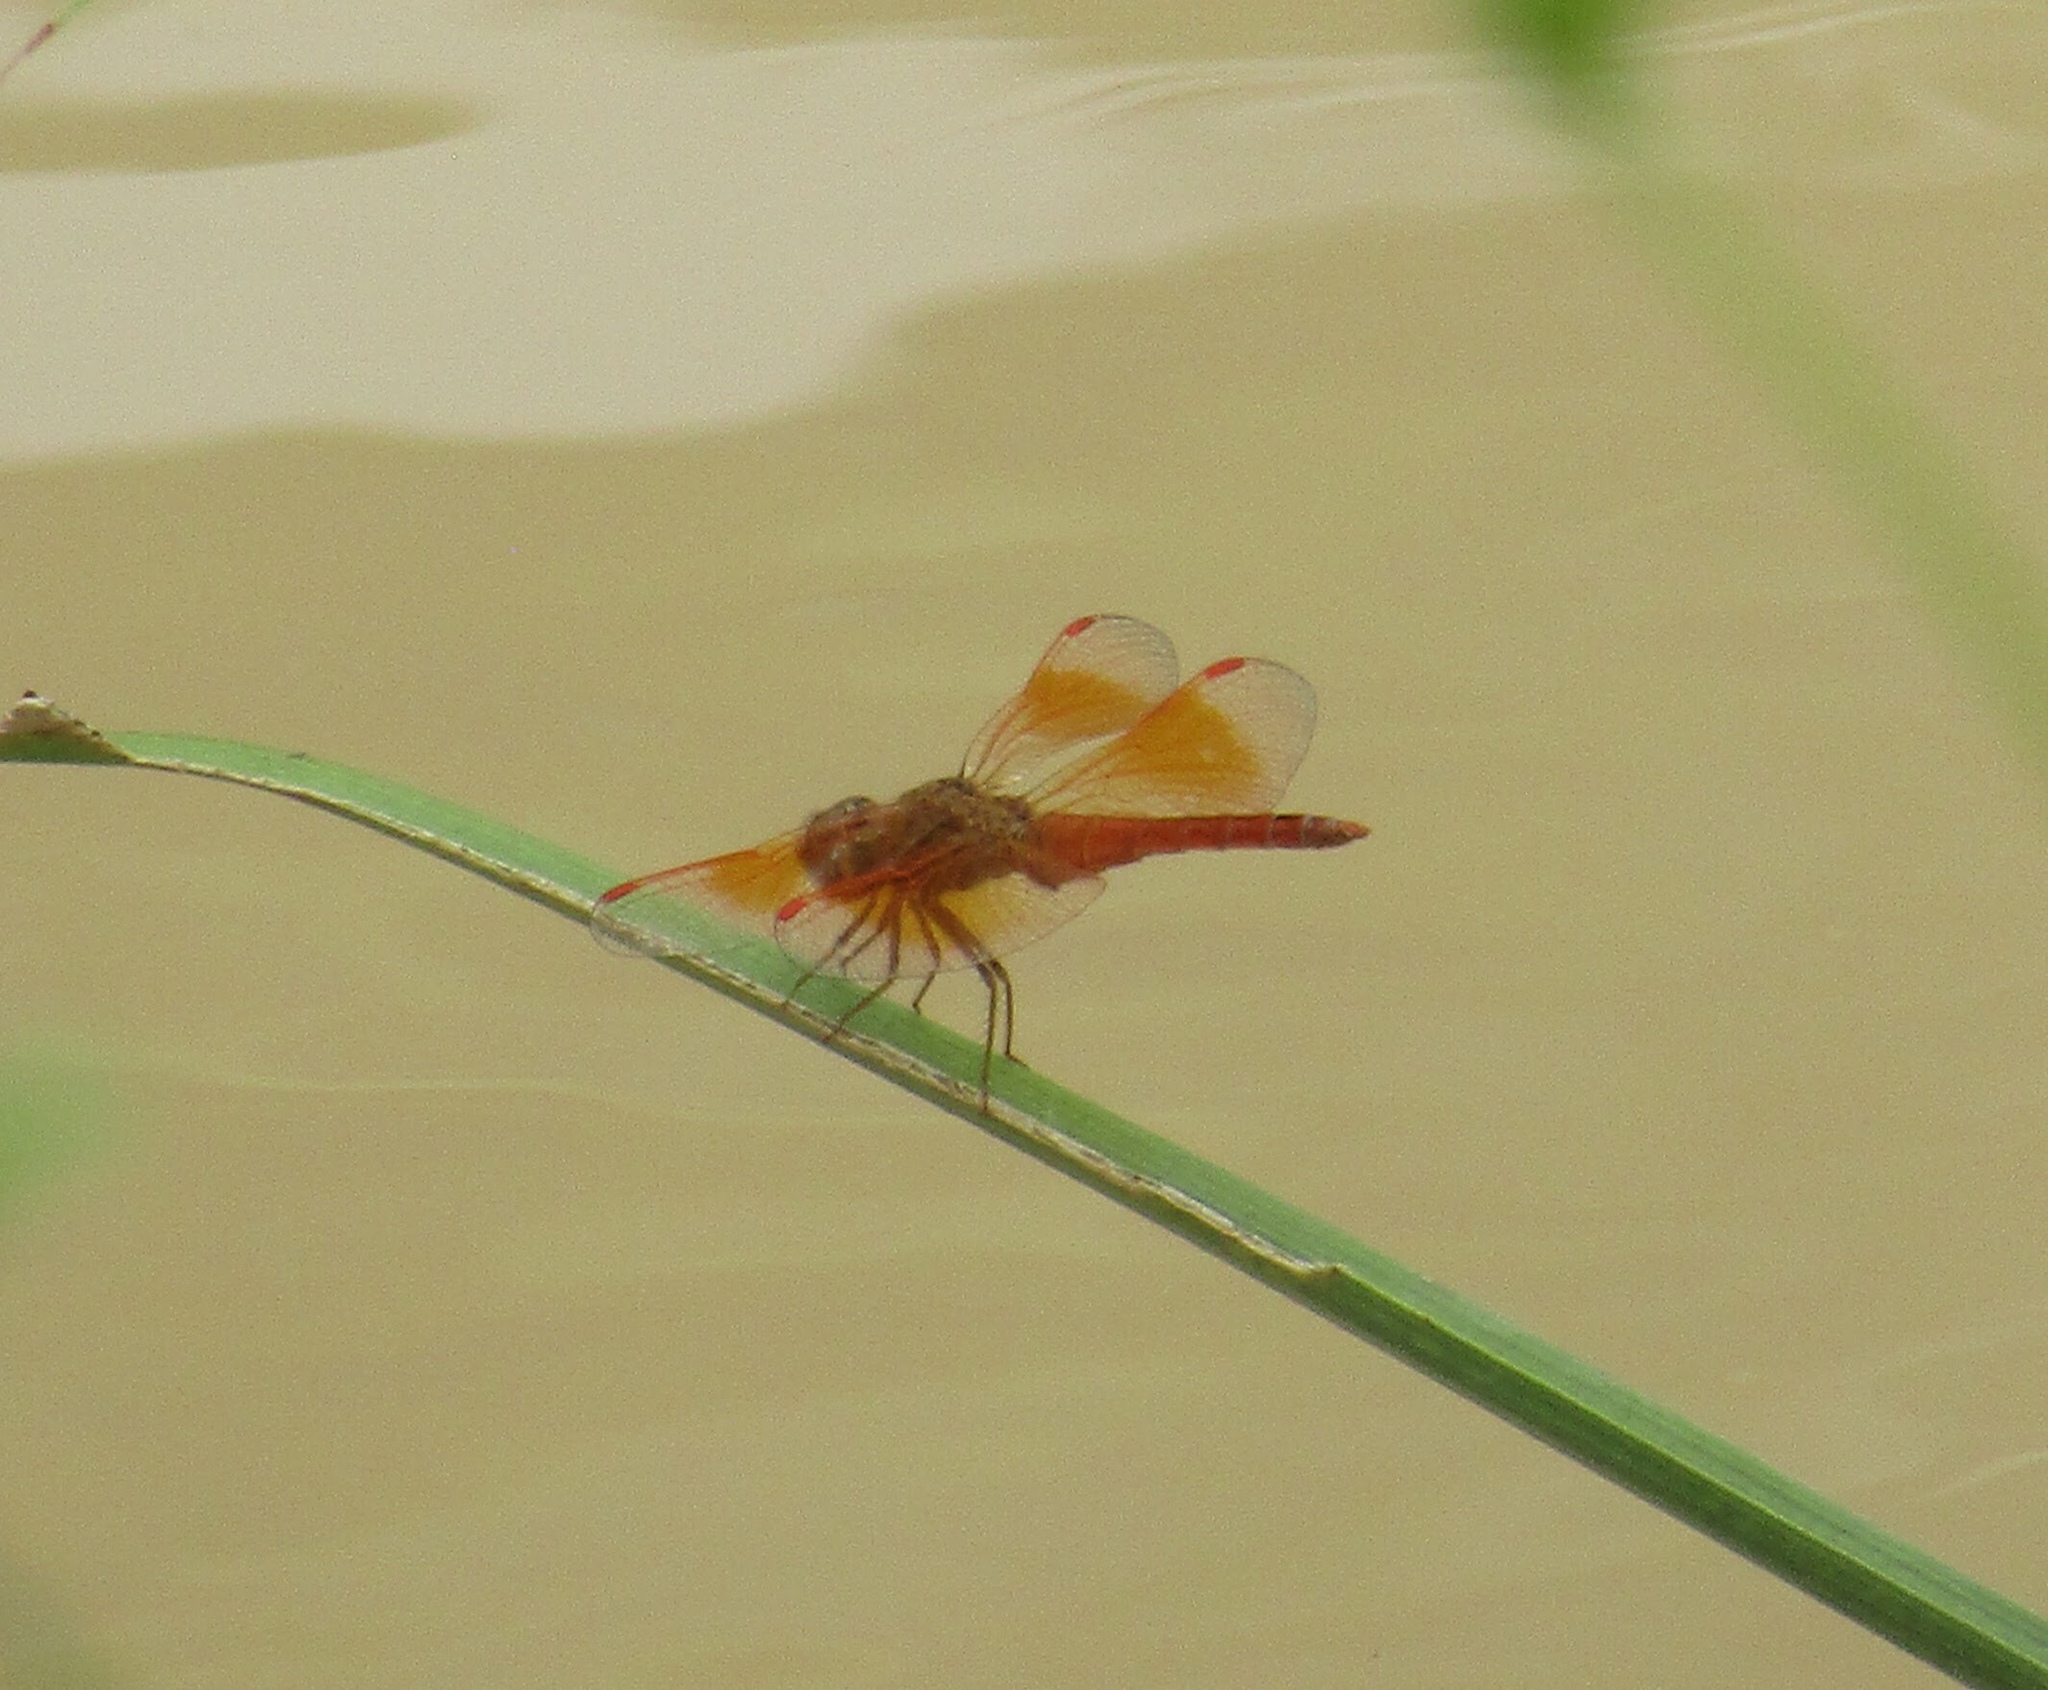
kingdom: Animalia
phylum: Arthropoda
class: Insecta
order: Odonata
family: Libellulidae
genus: Brachythemis
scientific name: Brachythemis contaminata
